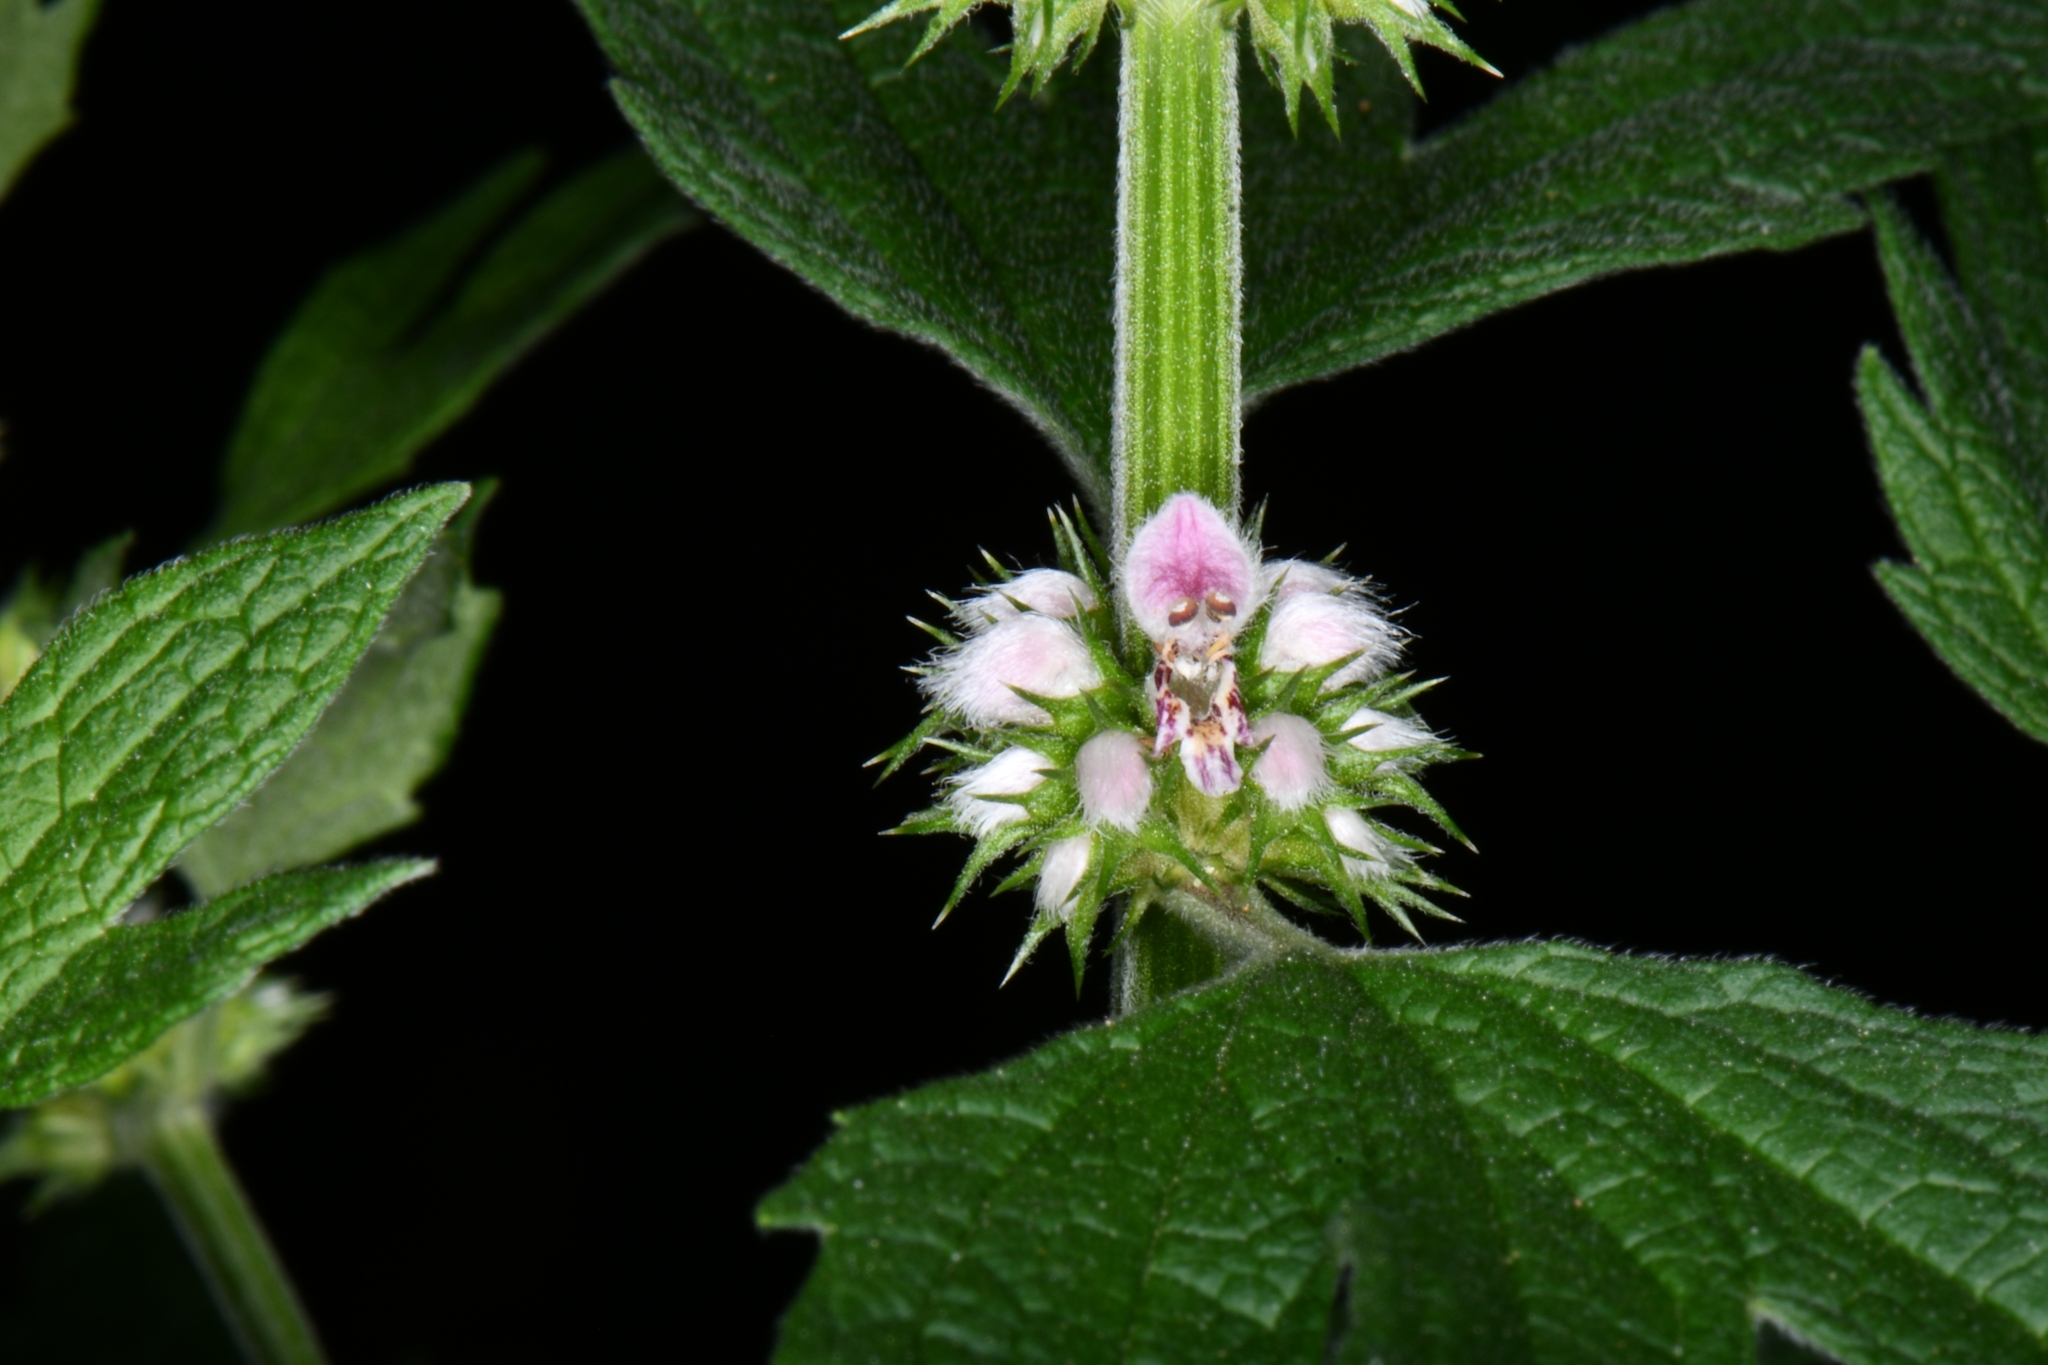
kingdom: Plantae
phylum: Tracheophyta
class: Magnoliopsida
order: Lamiales
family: Lamiaceae
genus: Leonurus
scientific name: Leonurus cardiaca
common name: Motherwort
